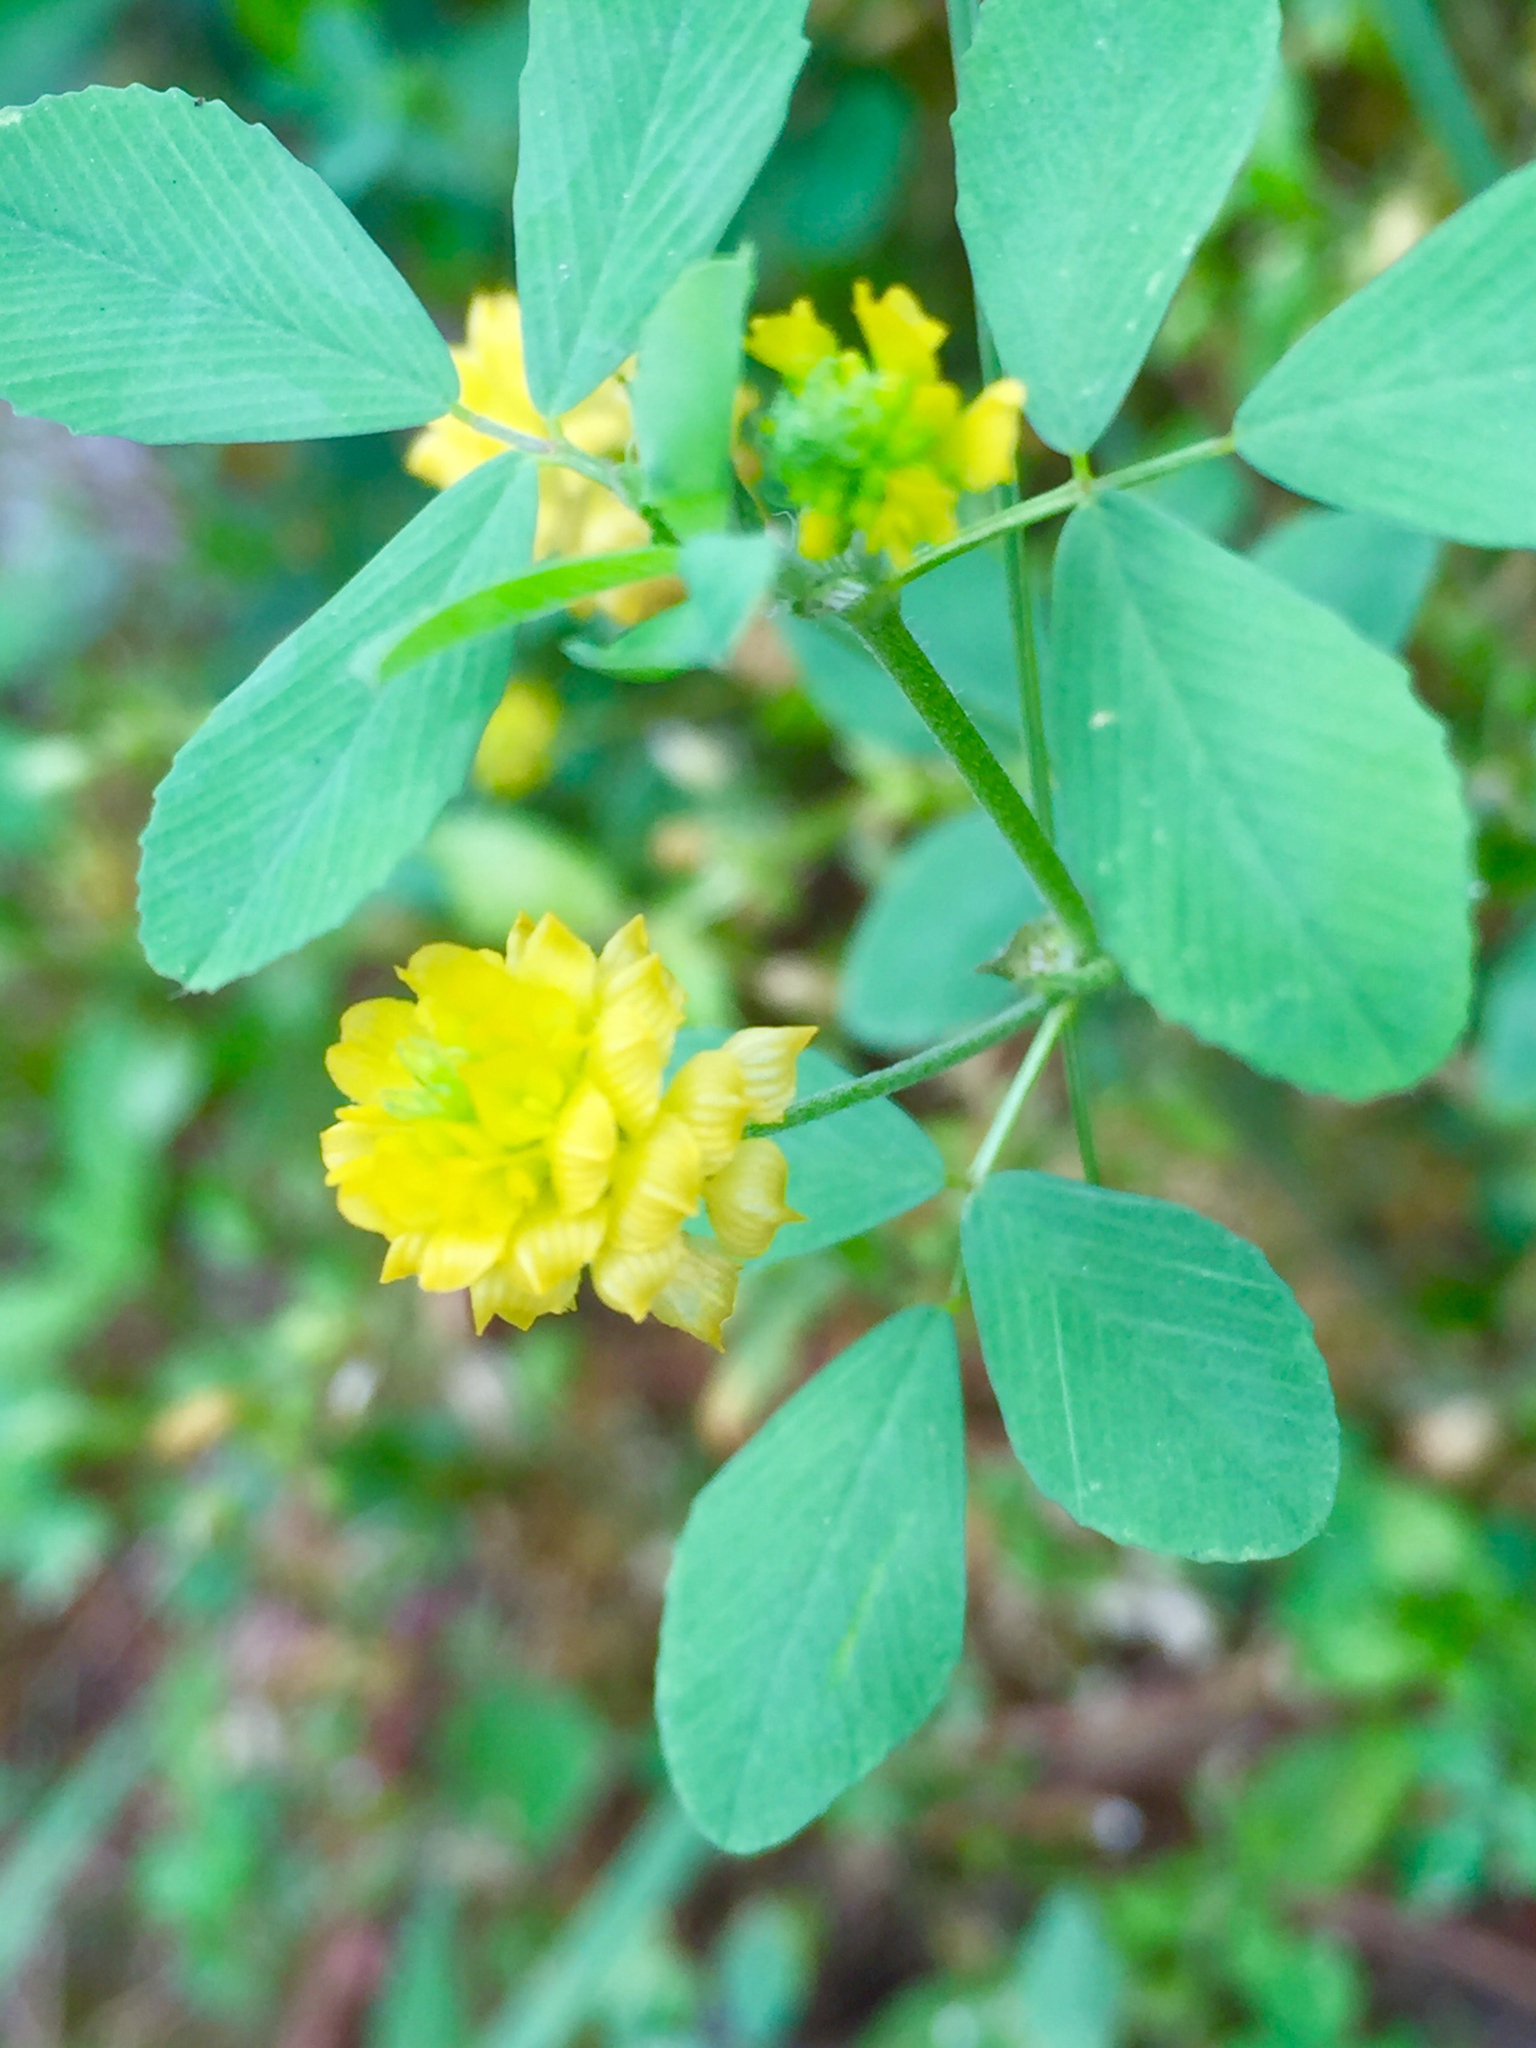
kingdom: Plantae
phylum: Tracheophyta
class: Magnoliopsida
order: Fabales
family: Fabaceae
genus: Trifolium
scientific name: Trifolium campestre
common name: Field clover
